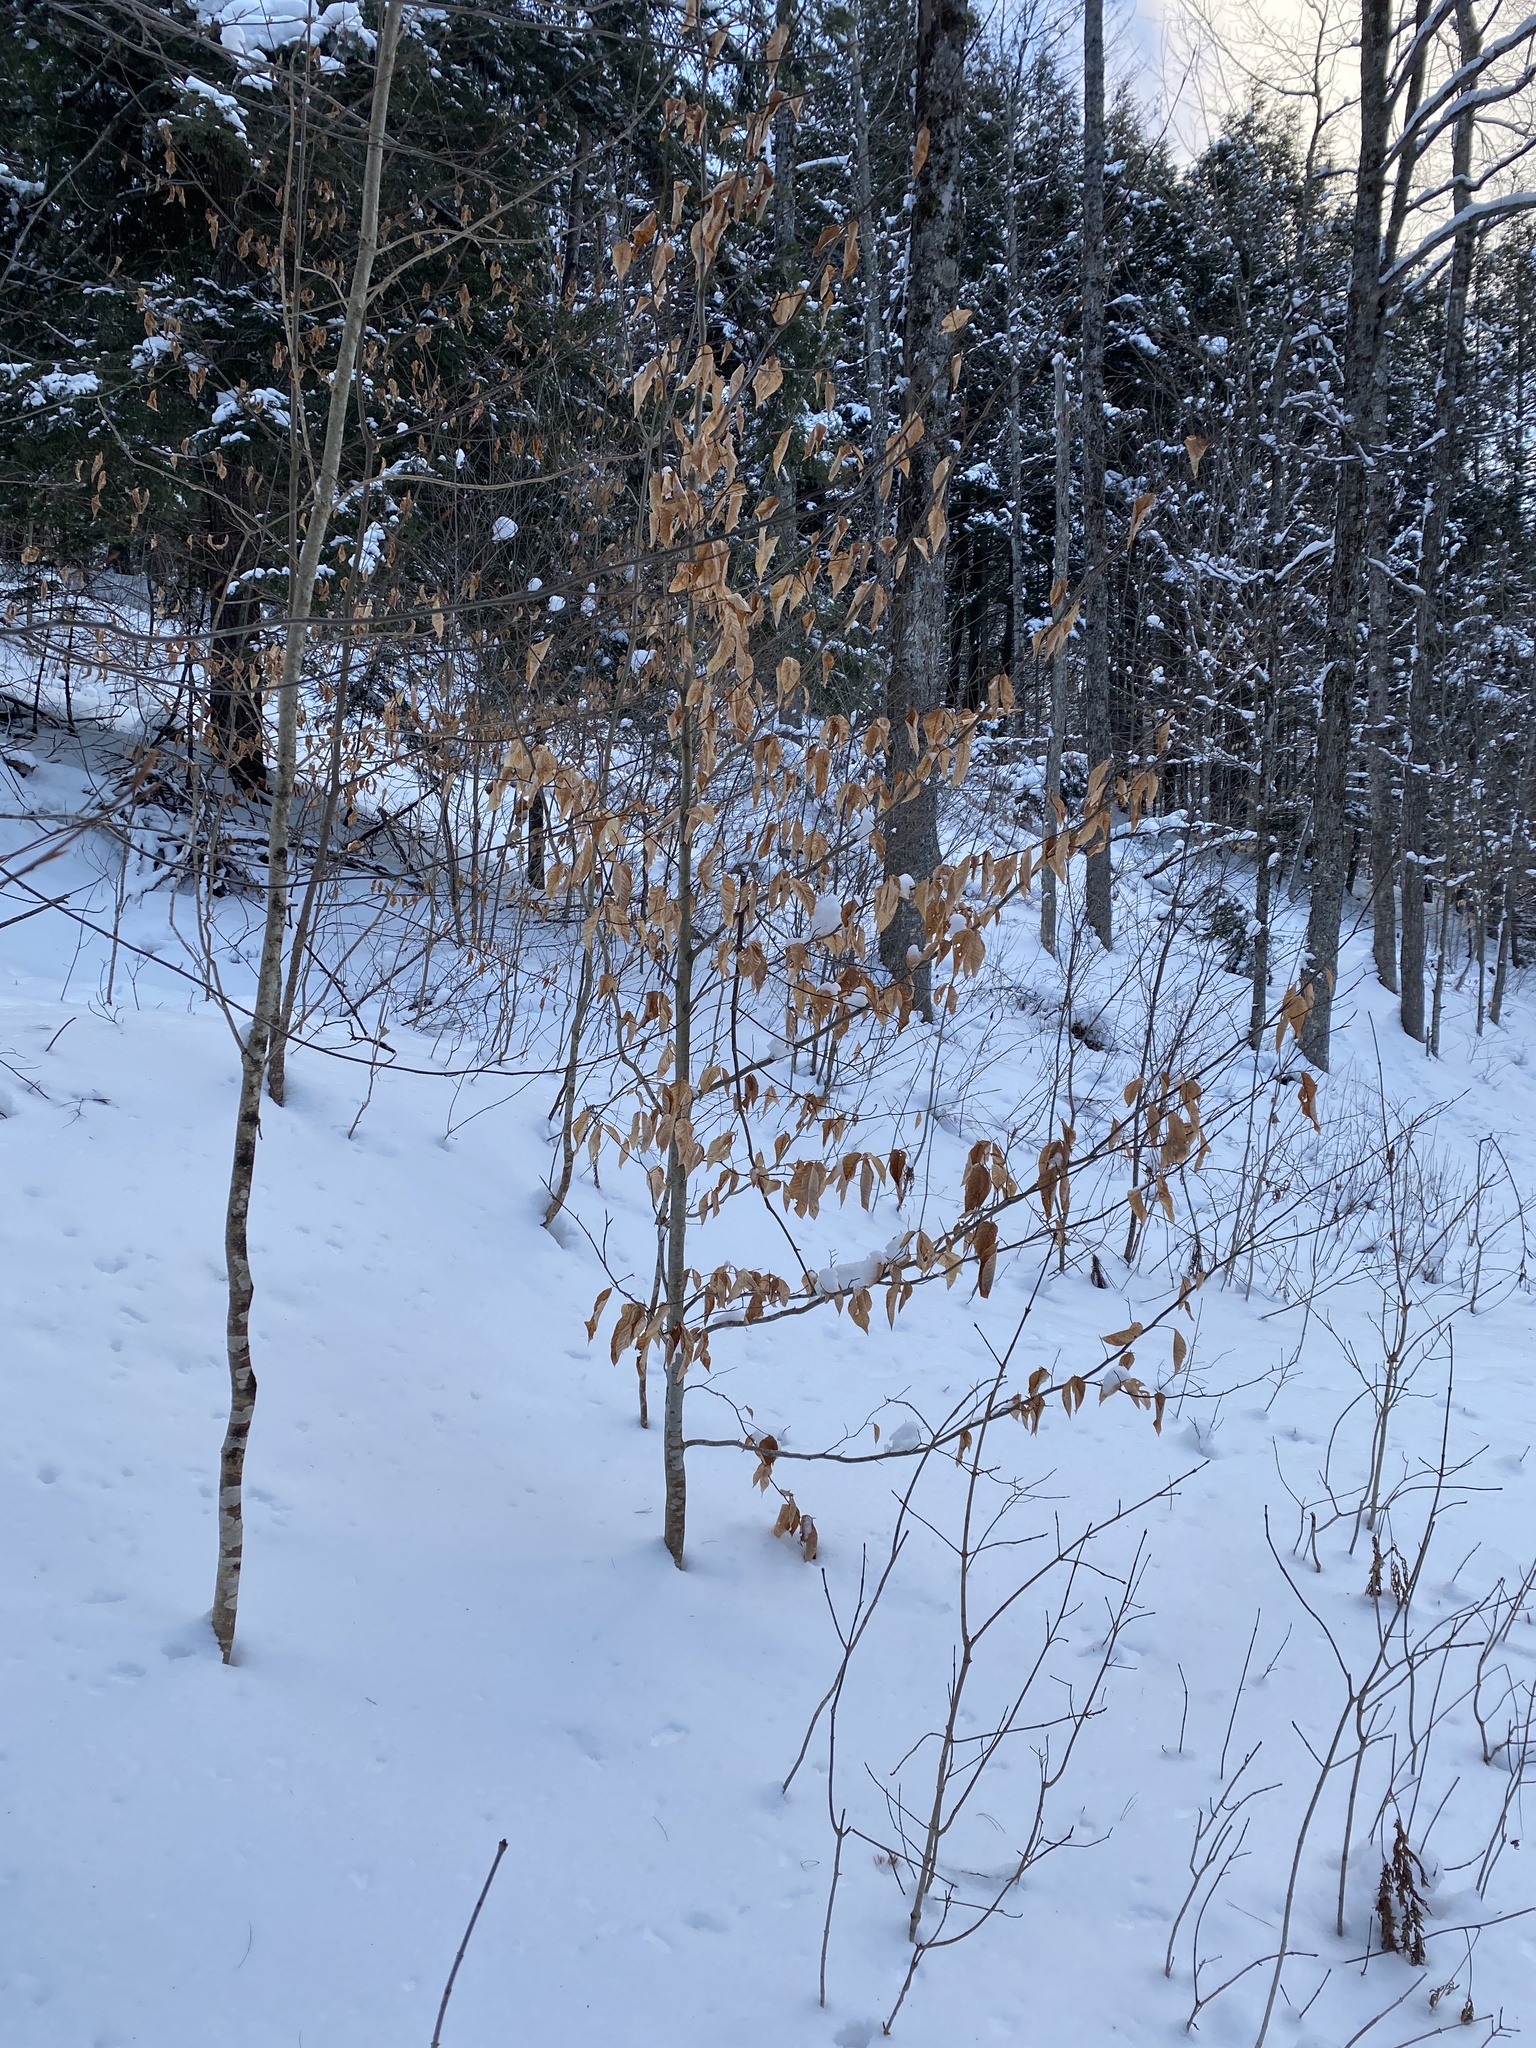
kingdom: Plantae
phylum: Tracheophyta
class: Magnoliopsida
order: Fagales
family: Fagaceae
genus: Fagus
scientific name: Fagus grandifolia
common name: American beech
